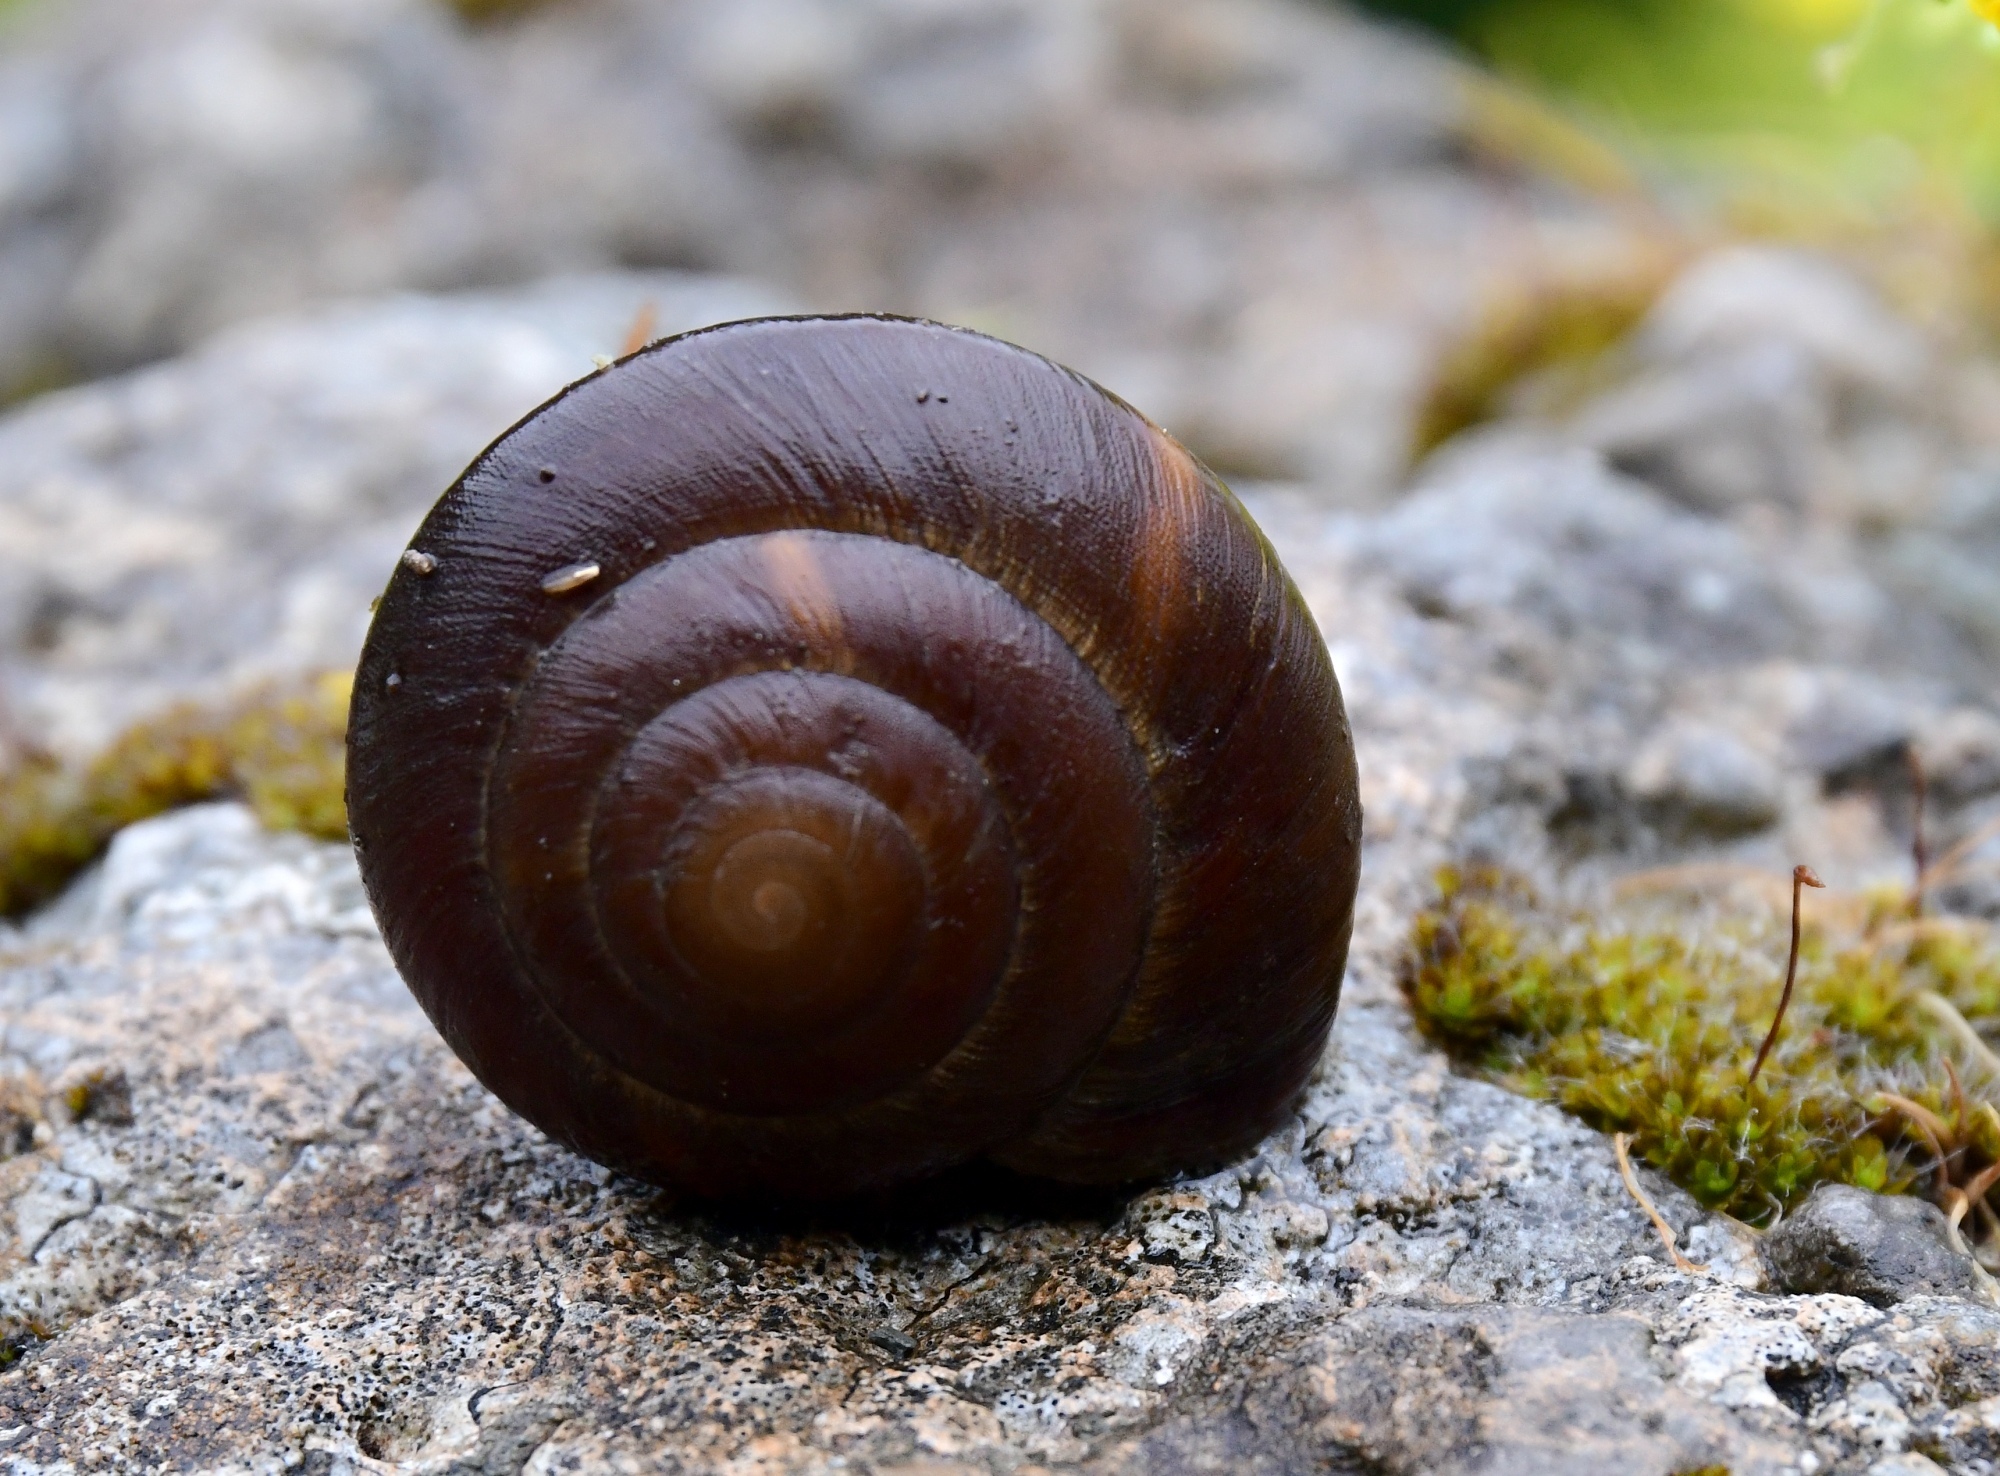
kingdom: Animalia
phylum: Mollusca
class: Gastropoda
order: Stylommatophora
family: Zonitidae
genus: Zonites
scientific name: Zonites graecus
